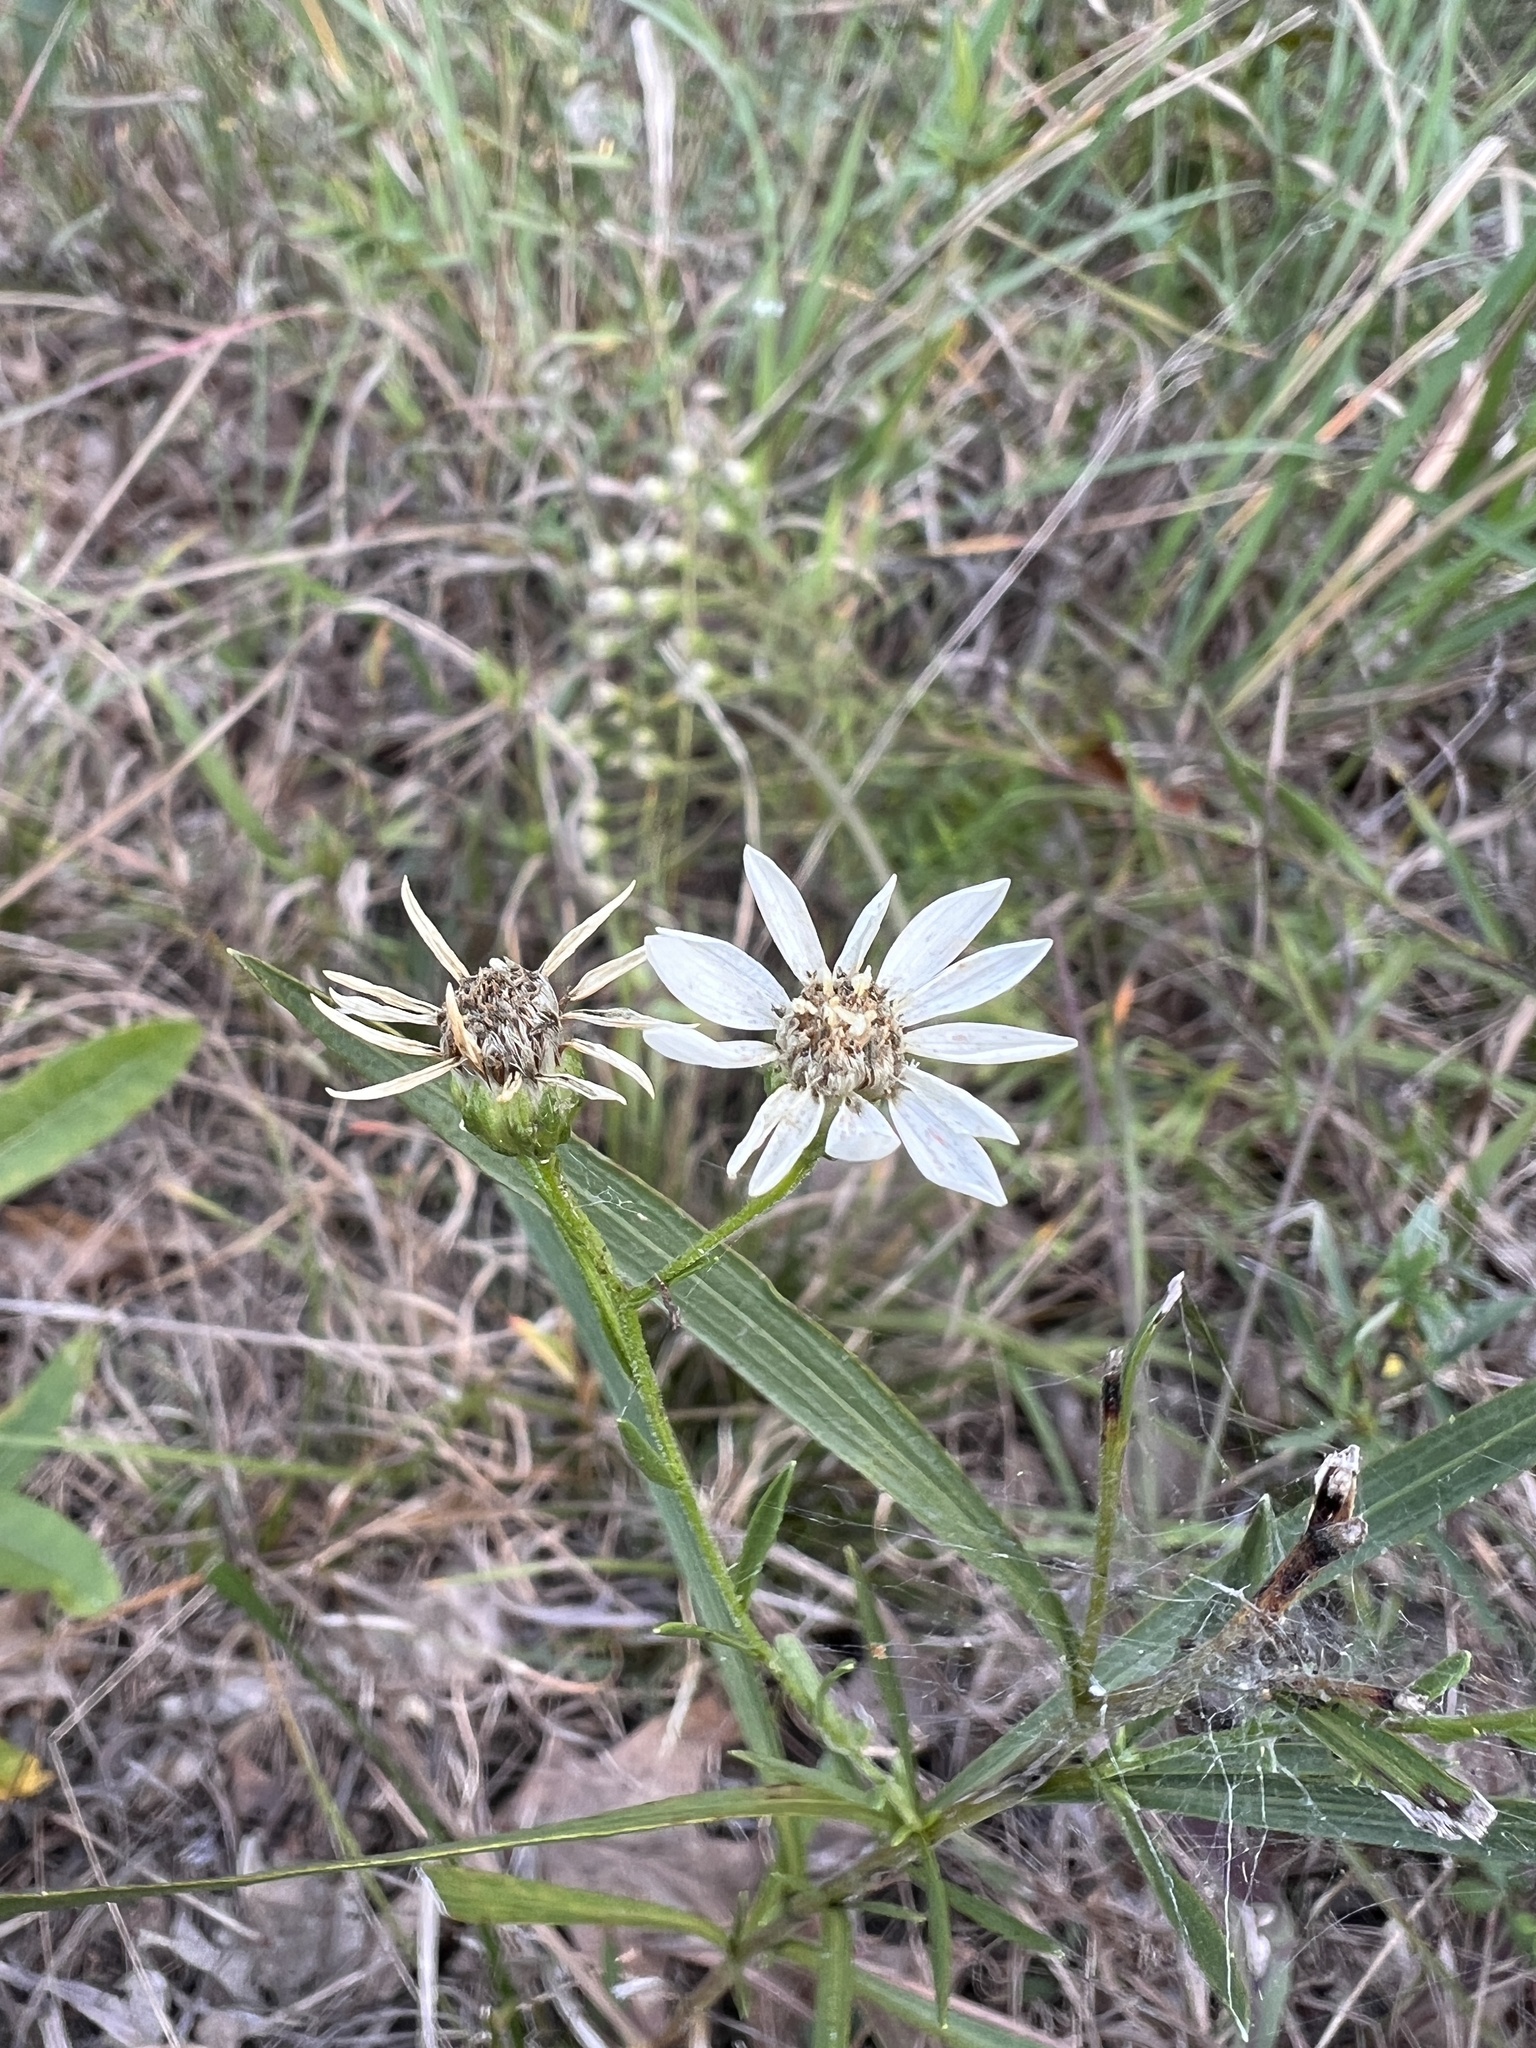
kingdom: Plantae
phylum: Tracheophyta
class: Magnoliopsida
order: Asterales
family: Asteraceae
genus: Solidago
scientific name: Solidago ptarmicoides
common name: White flat-top goldenrod
